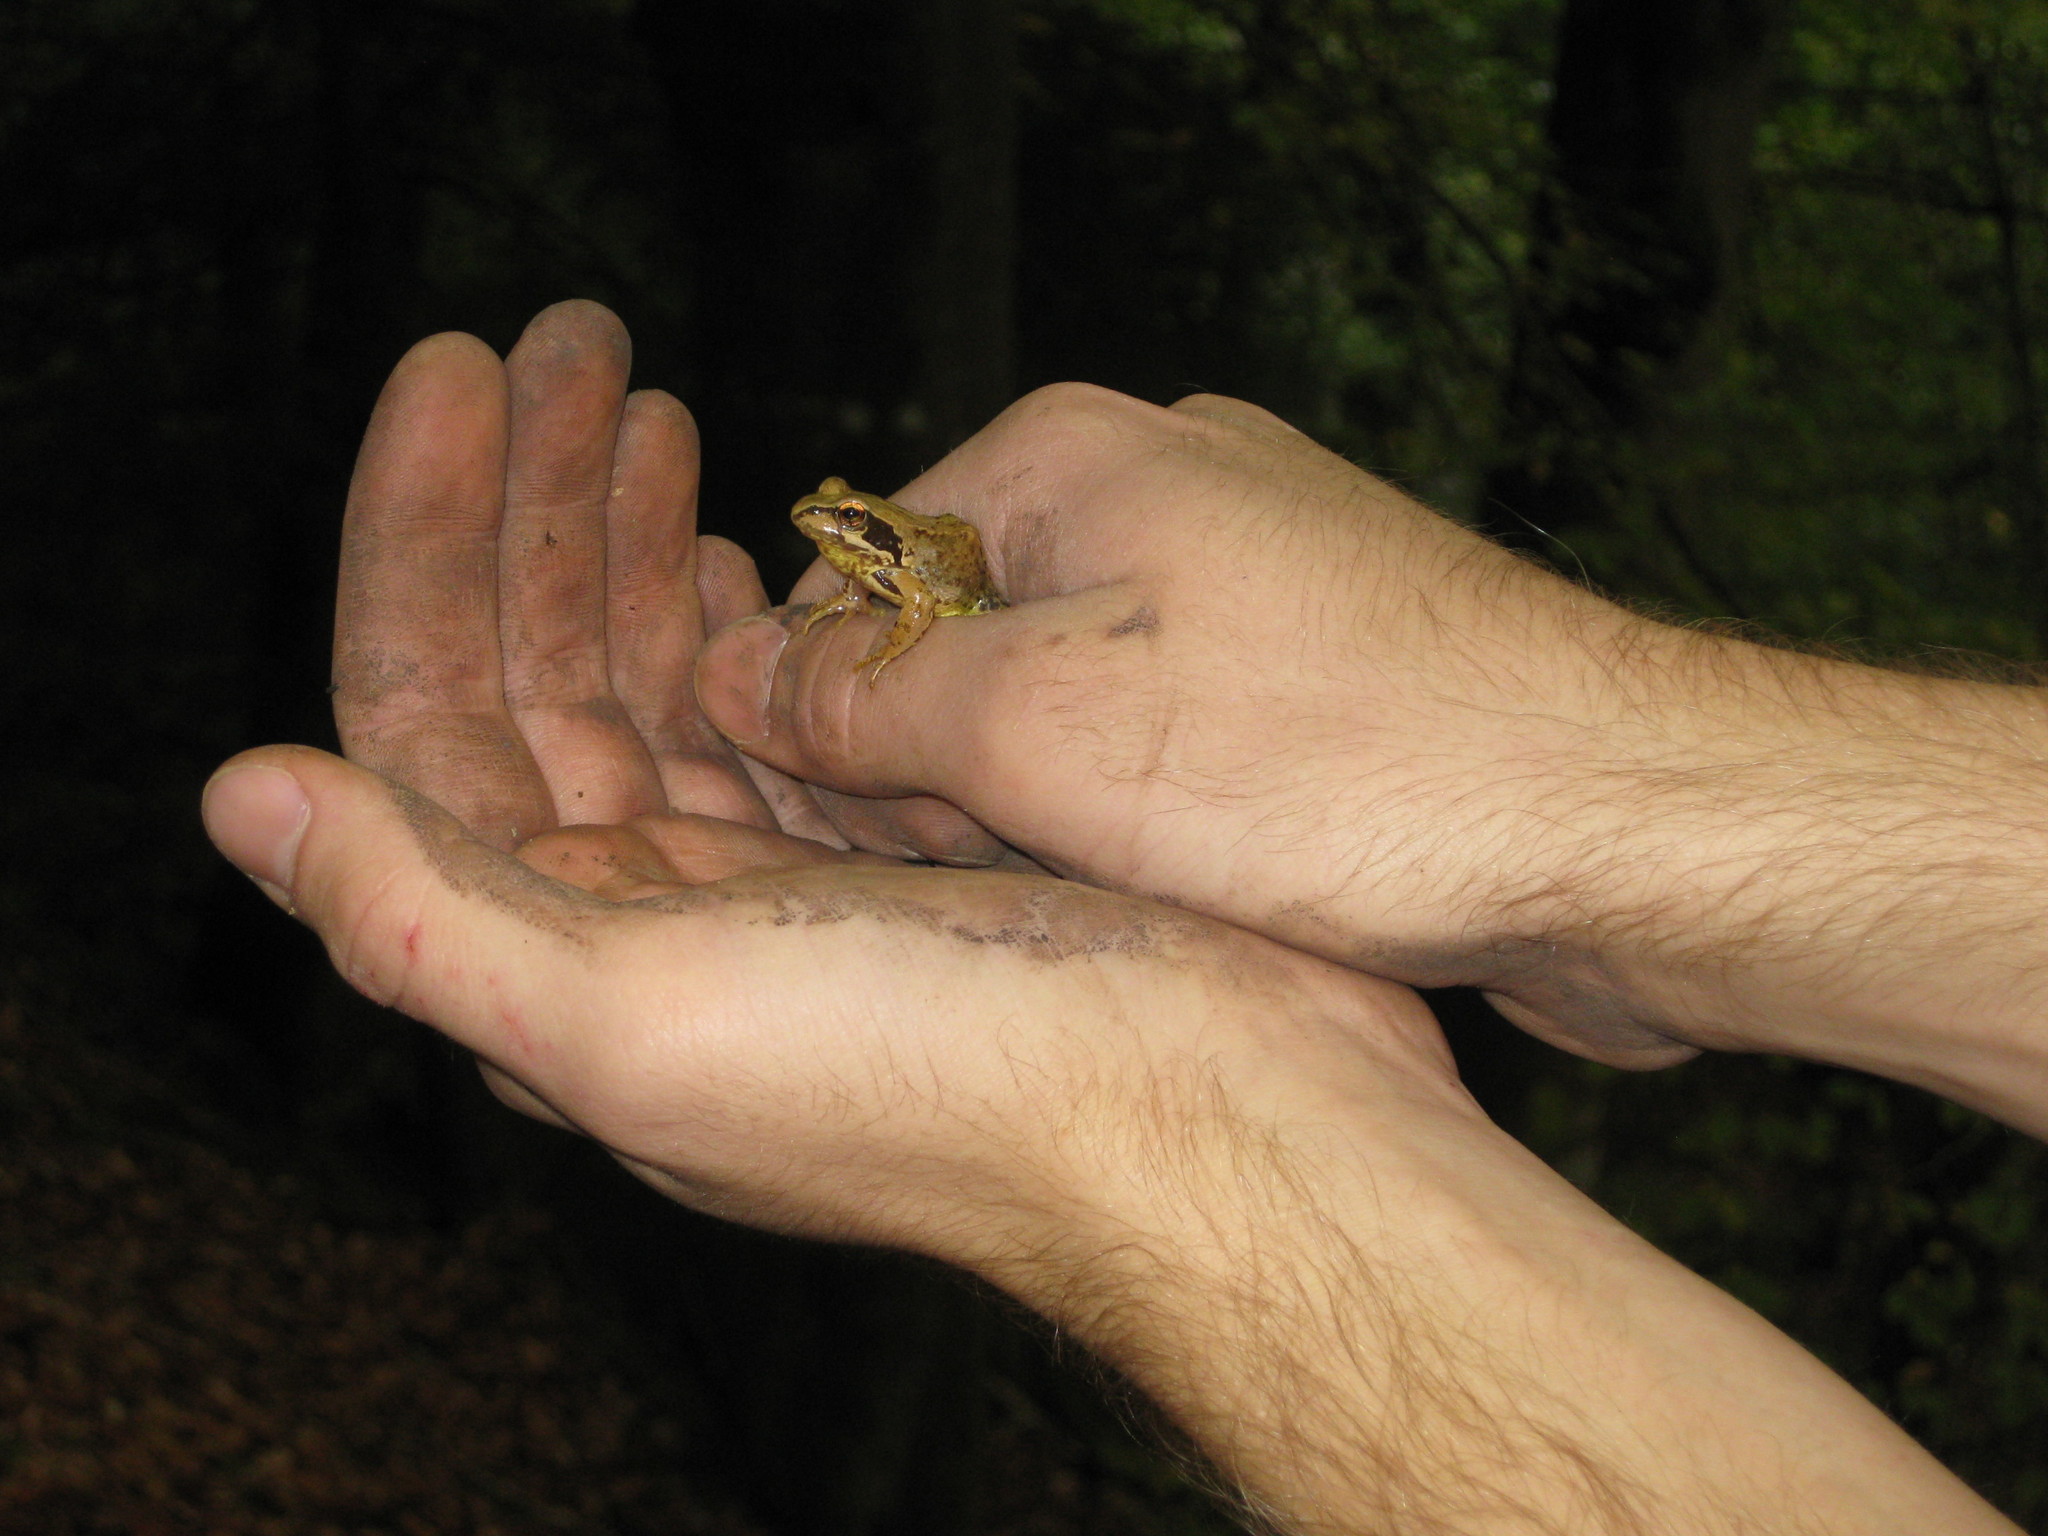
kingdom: Animalia
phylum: Chordata
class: Amphibia
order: Anura
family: Ranidae
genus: Rana
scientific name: Rana temporaria
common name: Common frog
